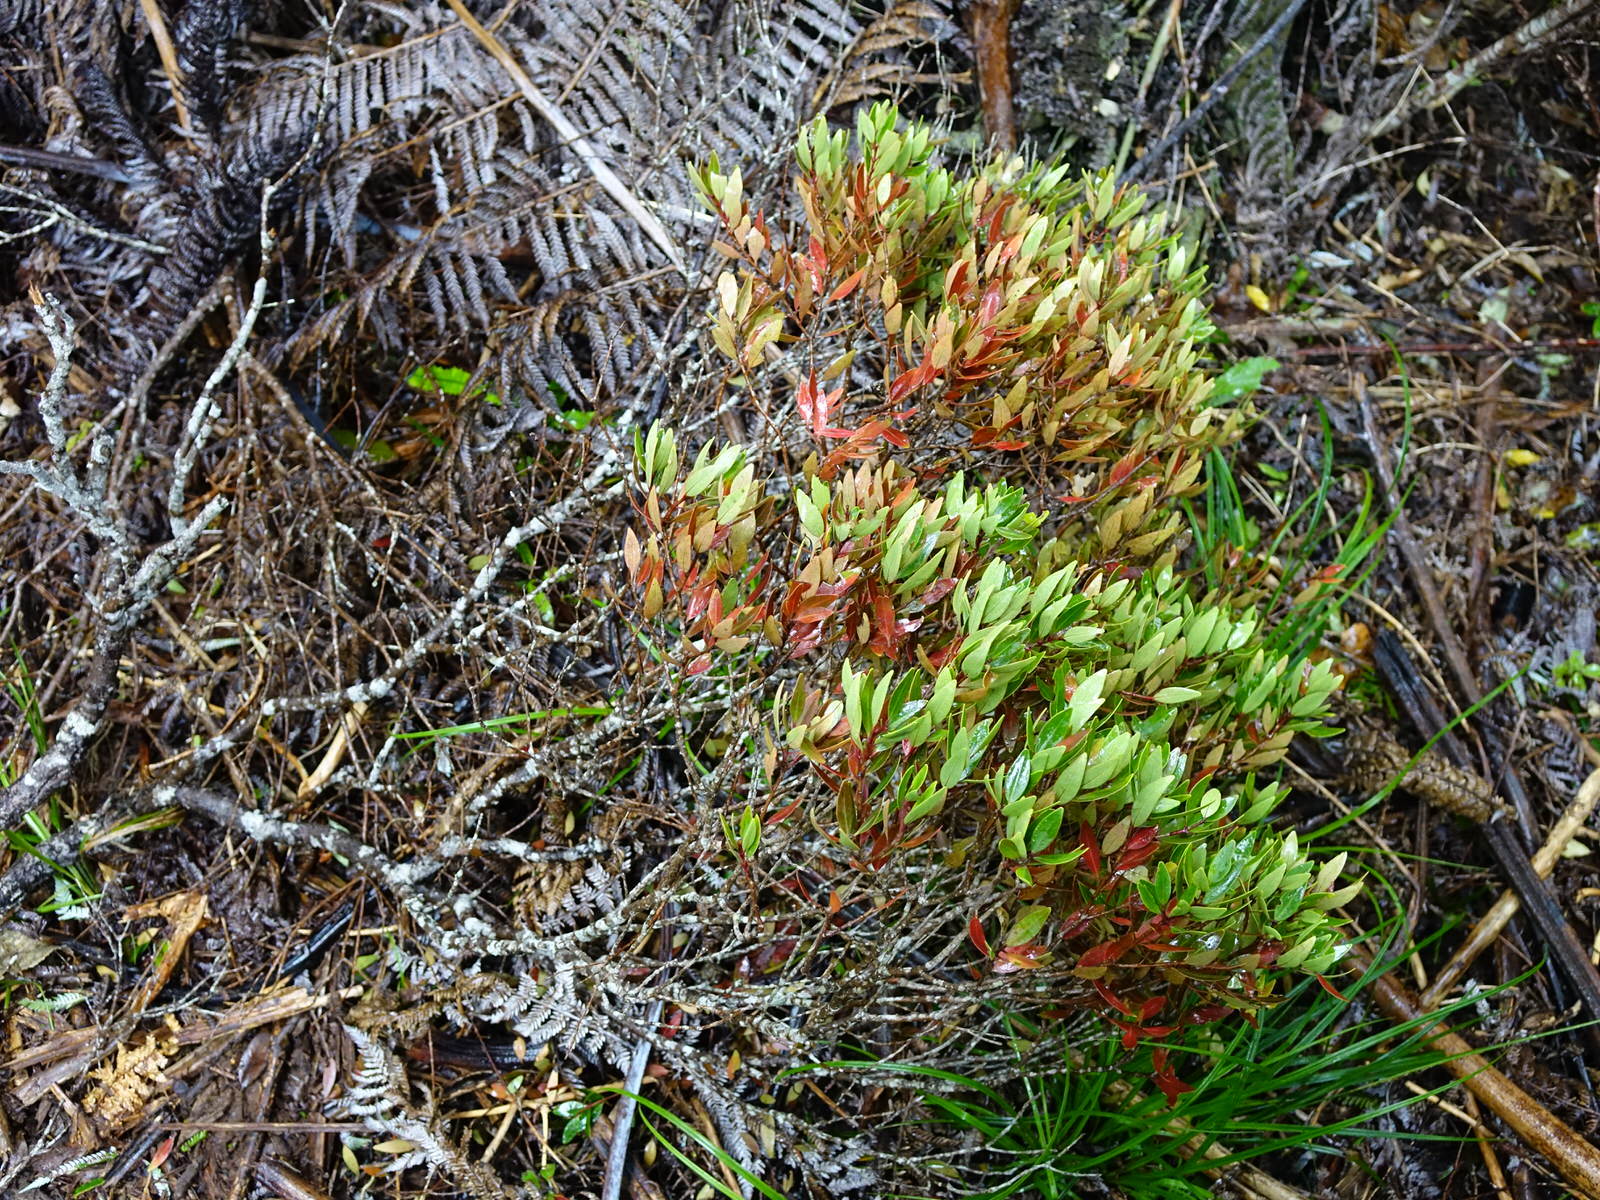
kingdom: Plantae
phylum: Tracheophyta
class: Magnoliopsida
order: Myrtales
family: Myrtaceae
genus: Metrosideros
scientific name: Metrosideros robusta
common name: Northern rata
